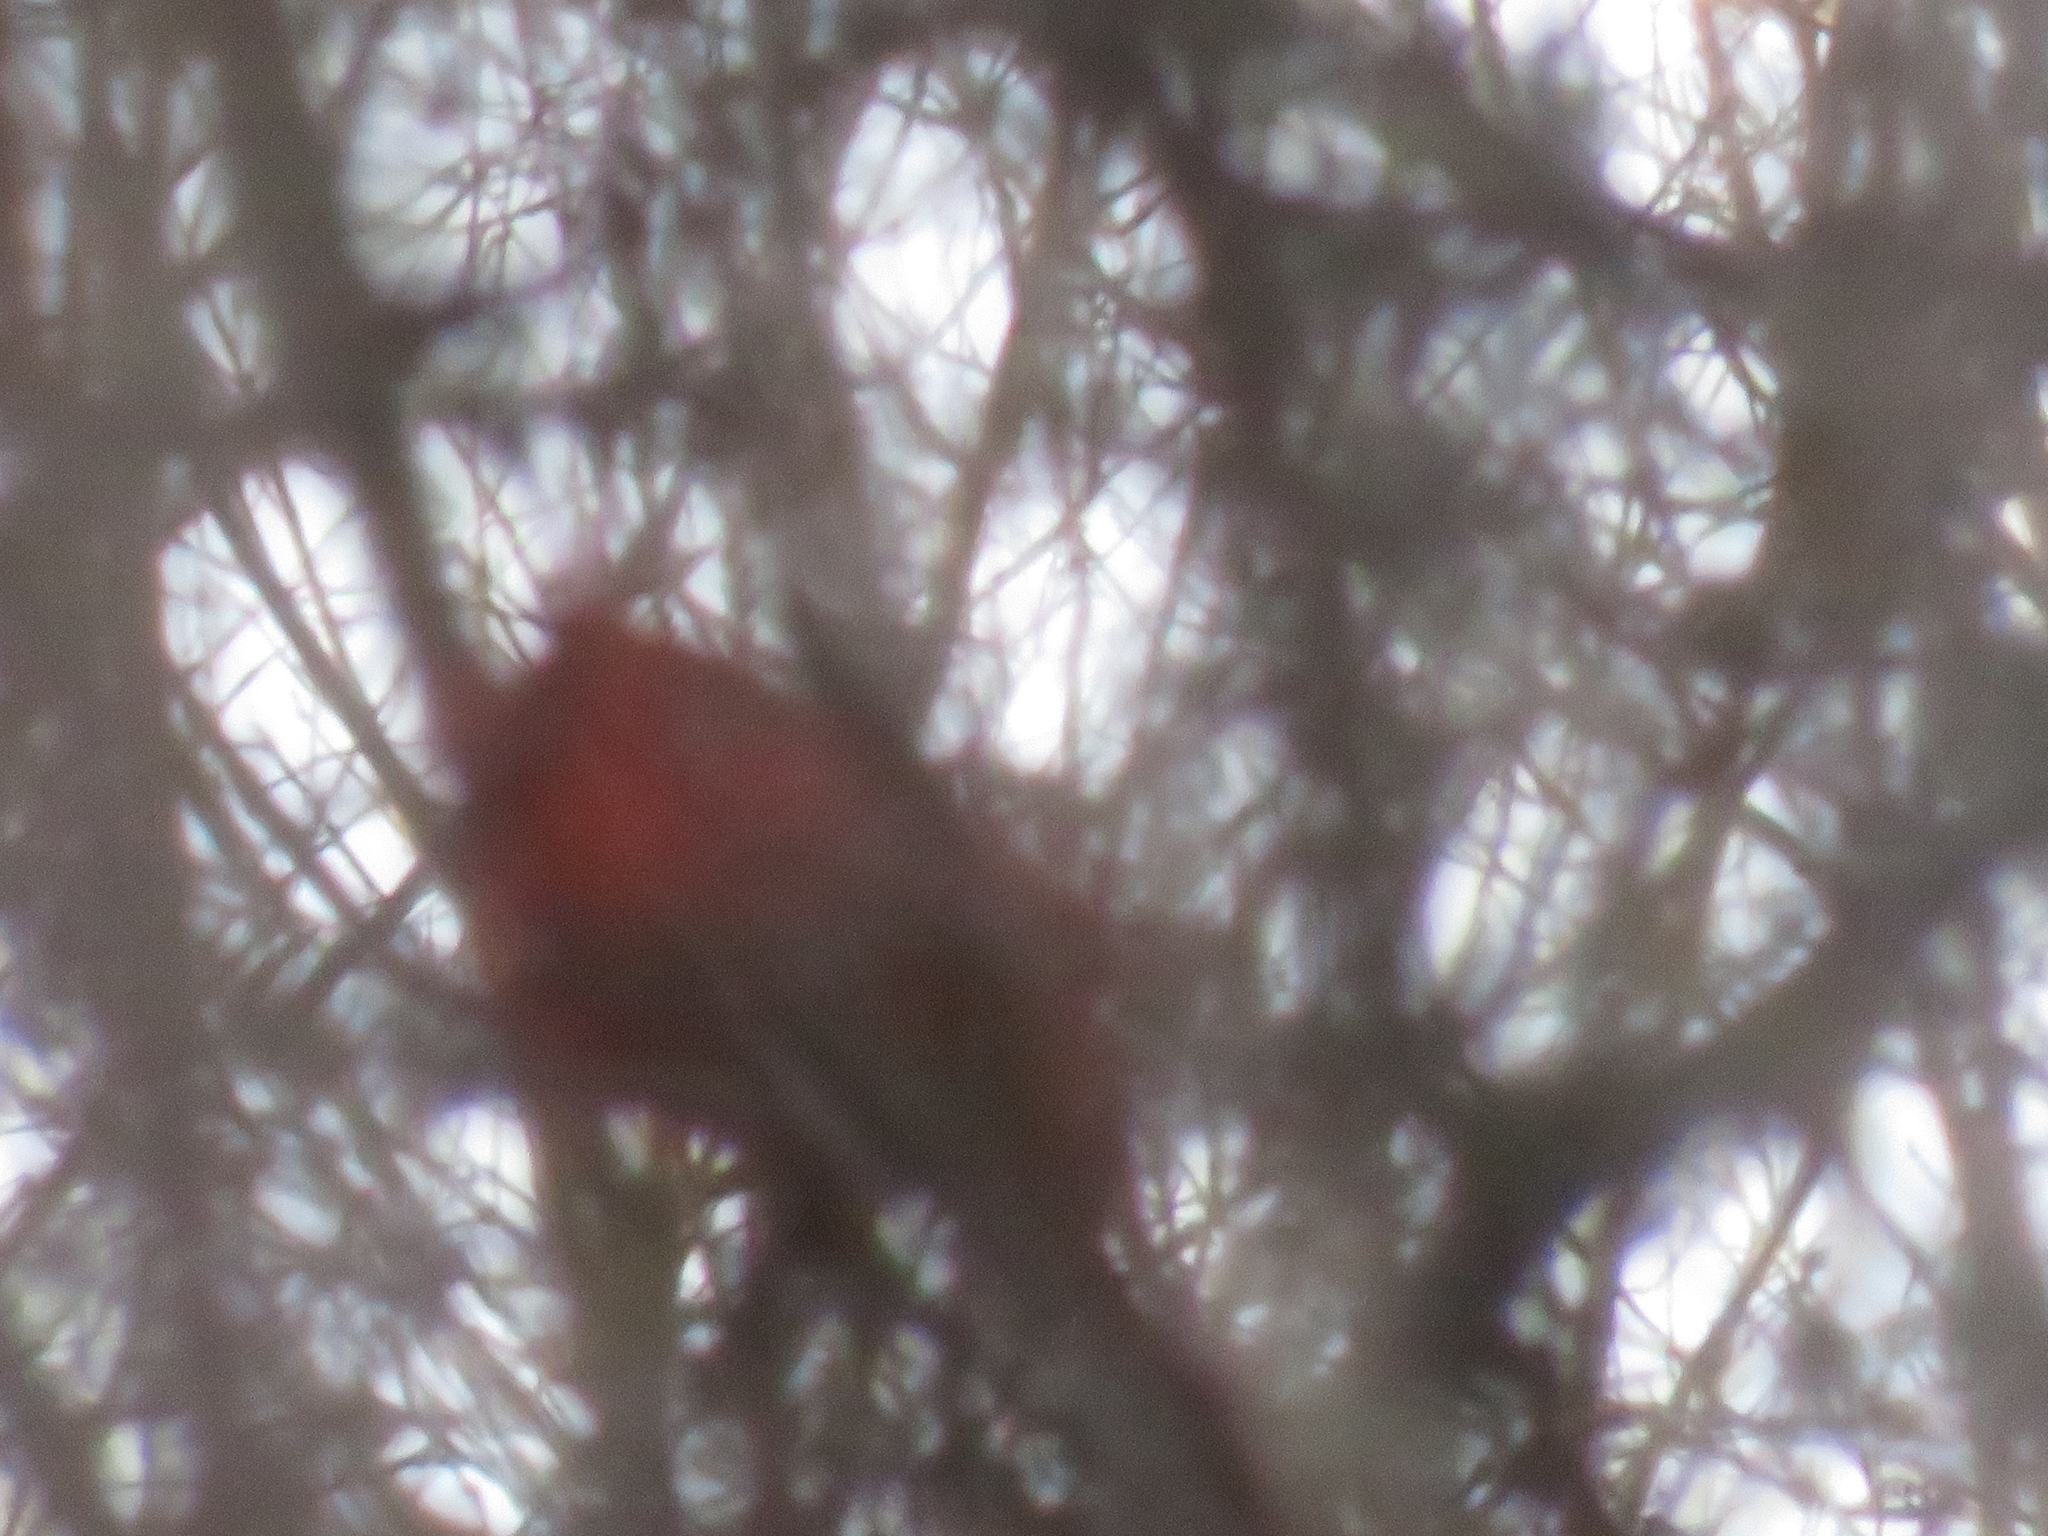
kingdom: Animalia
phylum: Chordata
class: Aves
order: Passeriformes
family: Cardinalidae
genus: Cardinalis
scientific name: Cardinalis cardinalis
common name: Northern cardinal
